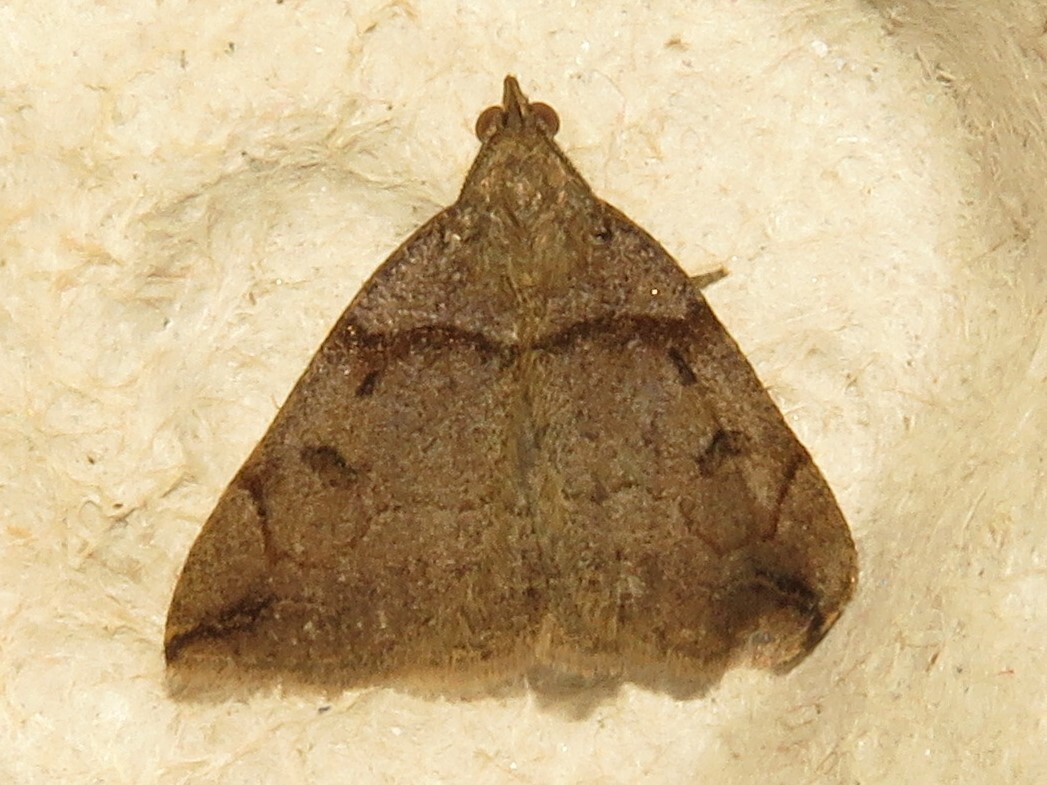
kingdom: Animalia
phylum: Arthropoda
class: Insecta
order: Lepidoptera
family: Erebidae
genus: Zanclognatha
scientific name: Zanclognatha laevigata
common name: Variable fan-foot
